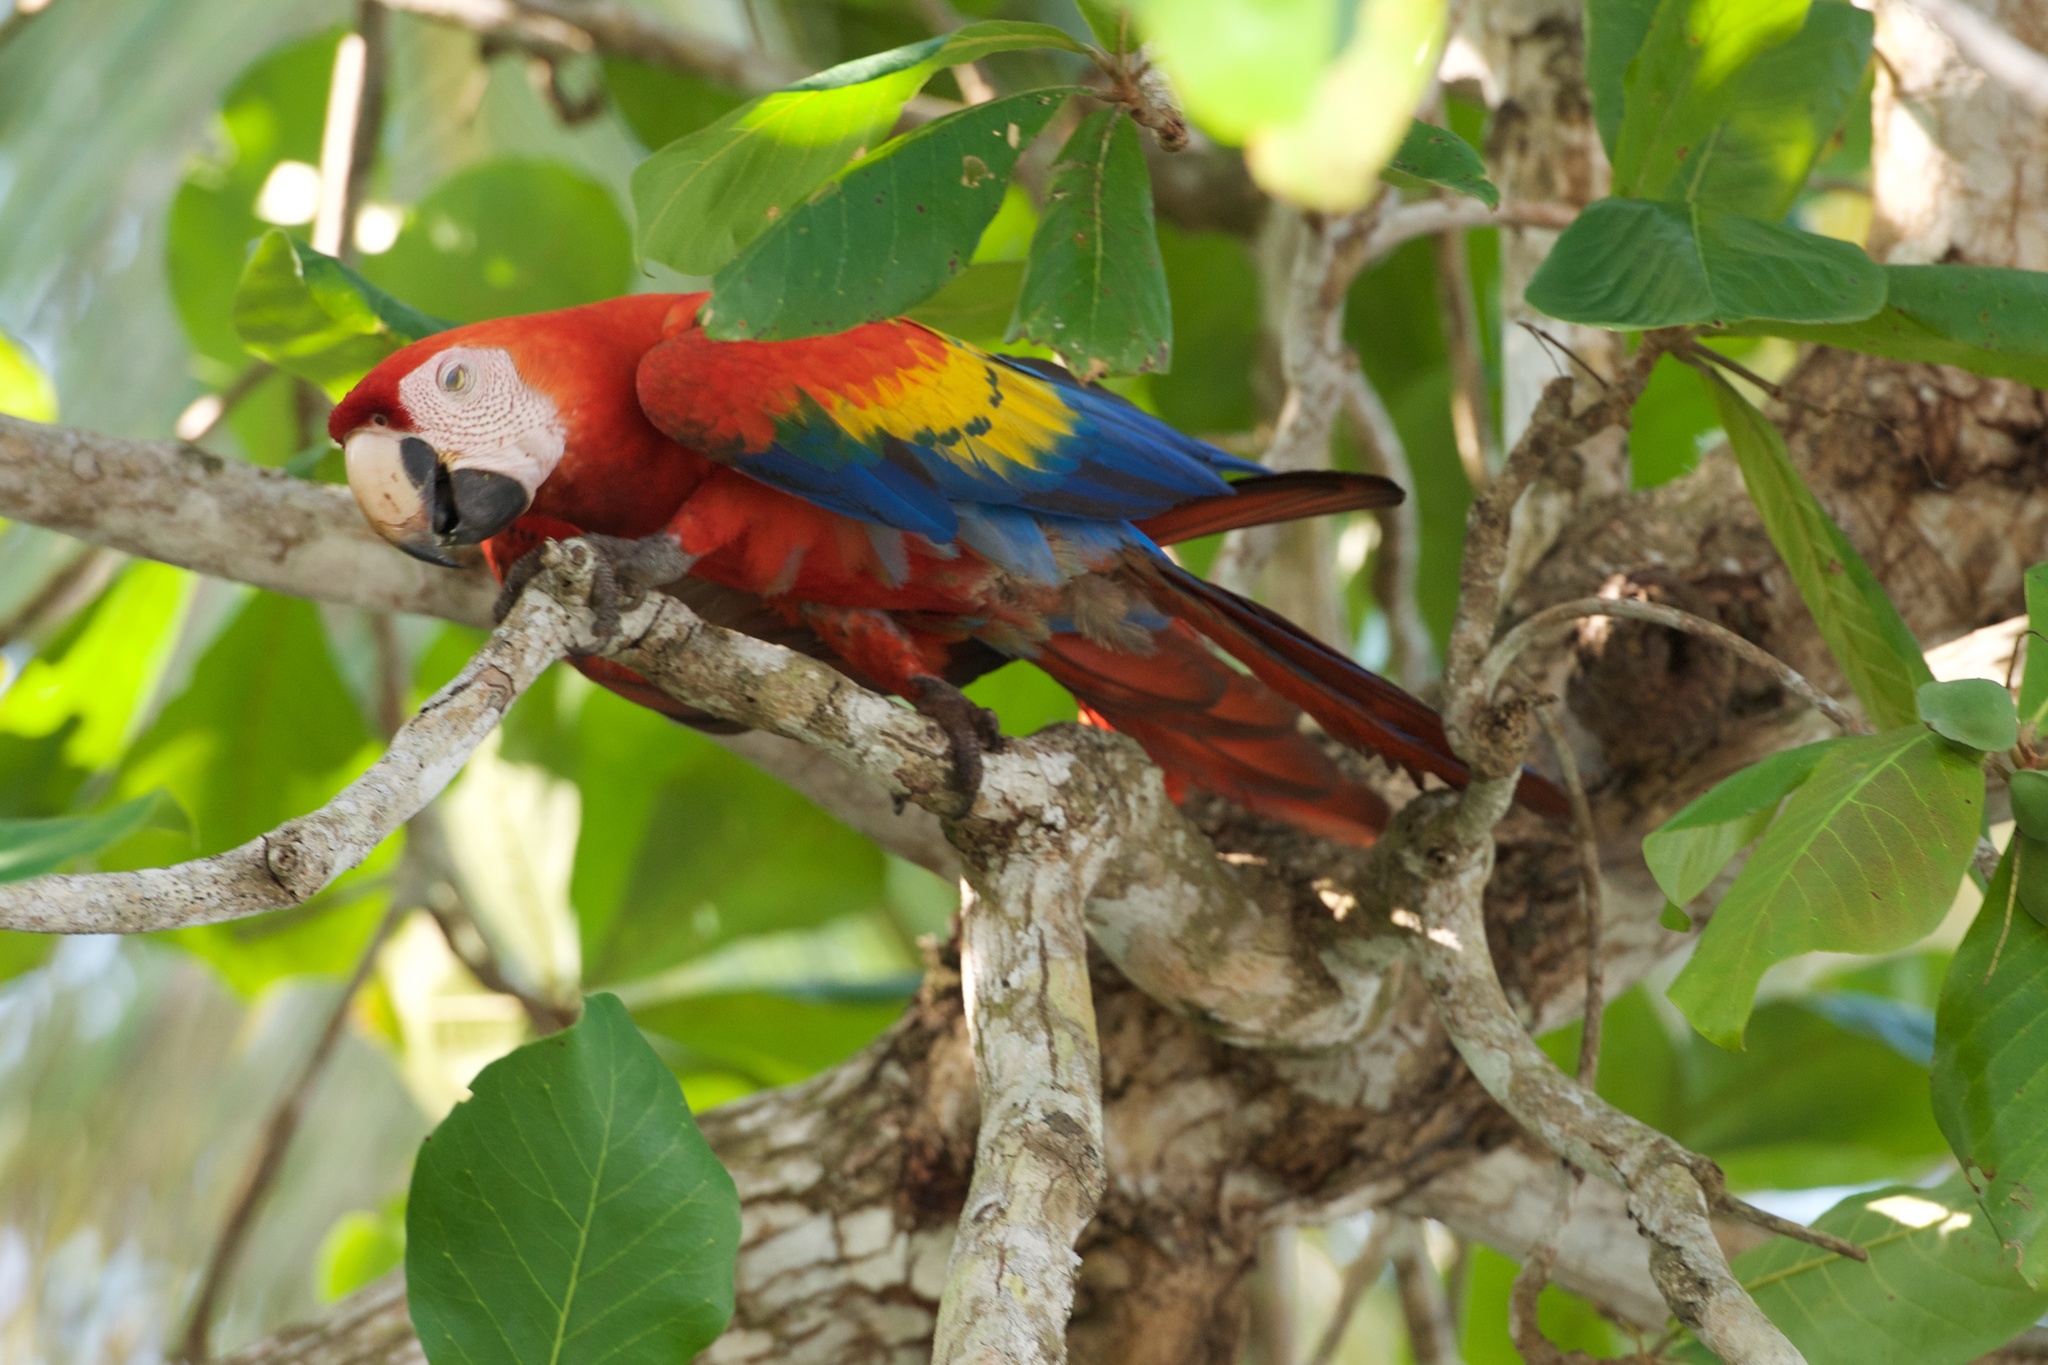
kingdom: Animalia
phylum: Chordata
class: Aves
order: Psittaciformes
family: Psittacidae
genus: Ara
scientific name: Ara macao
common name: Scarlet macaw
